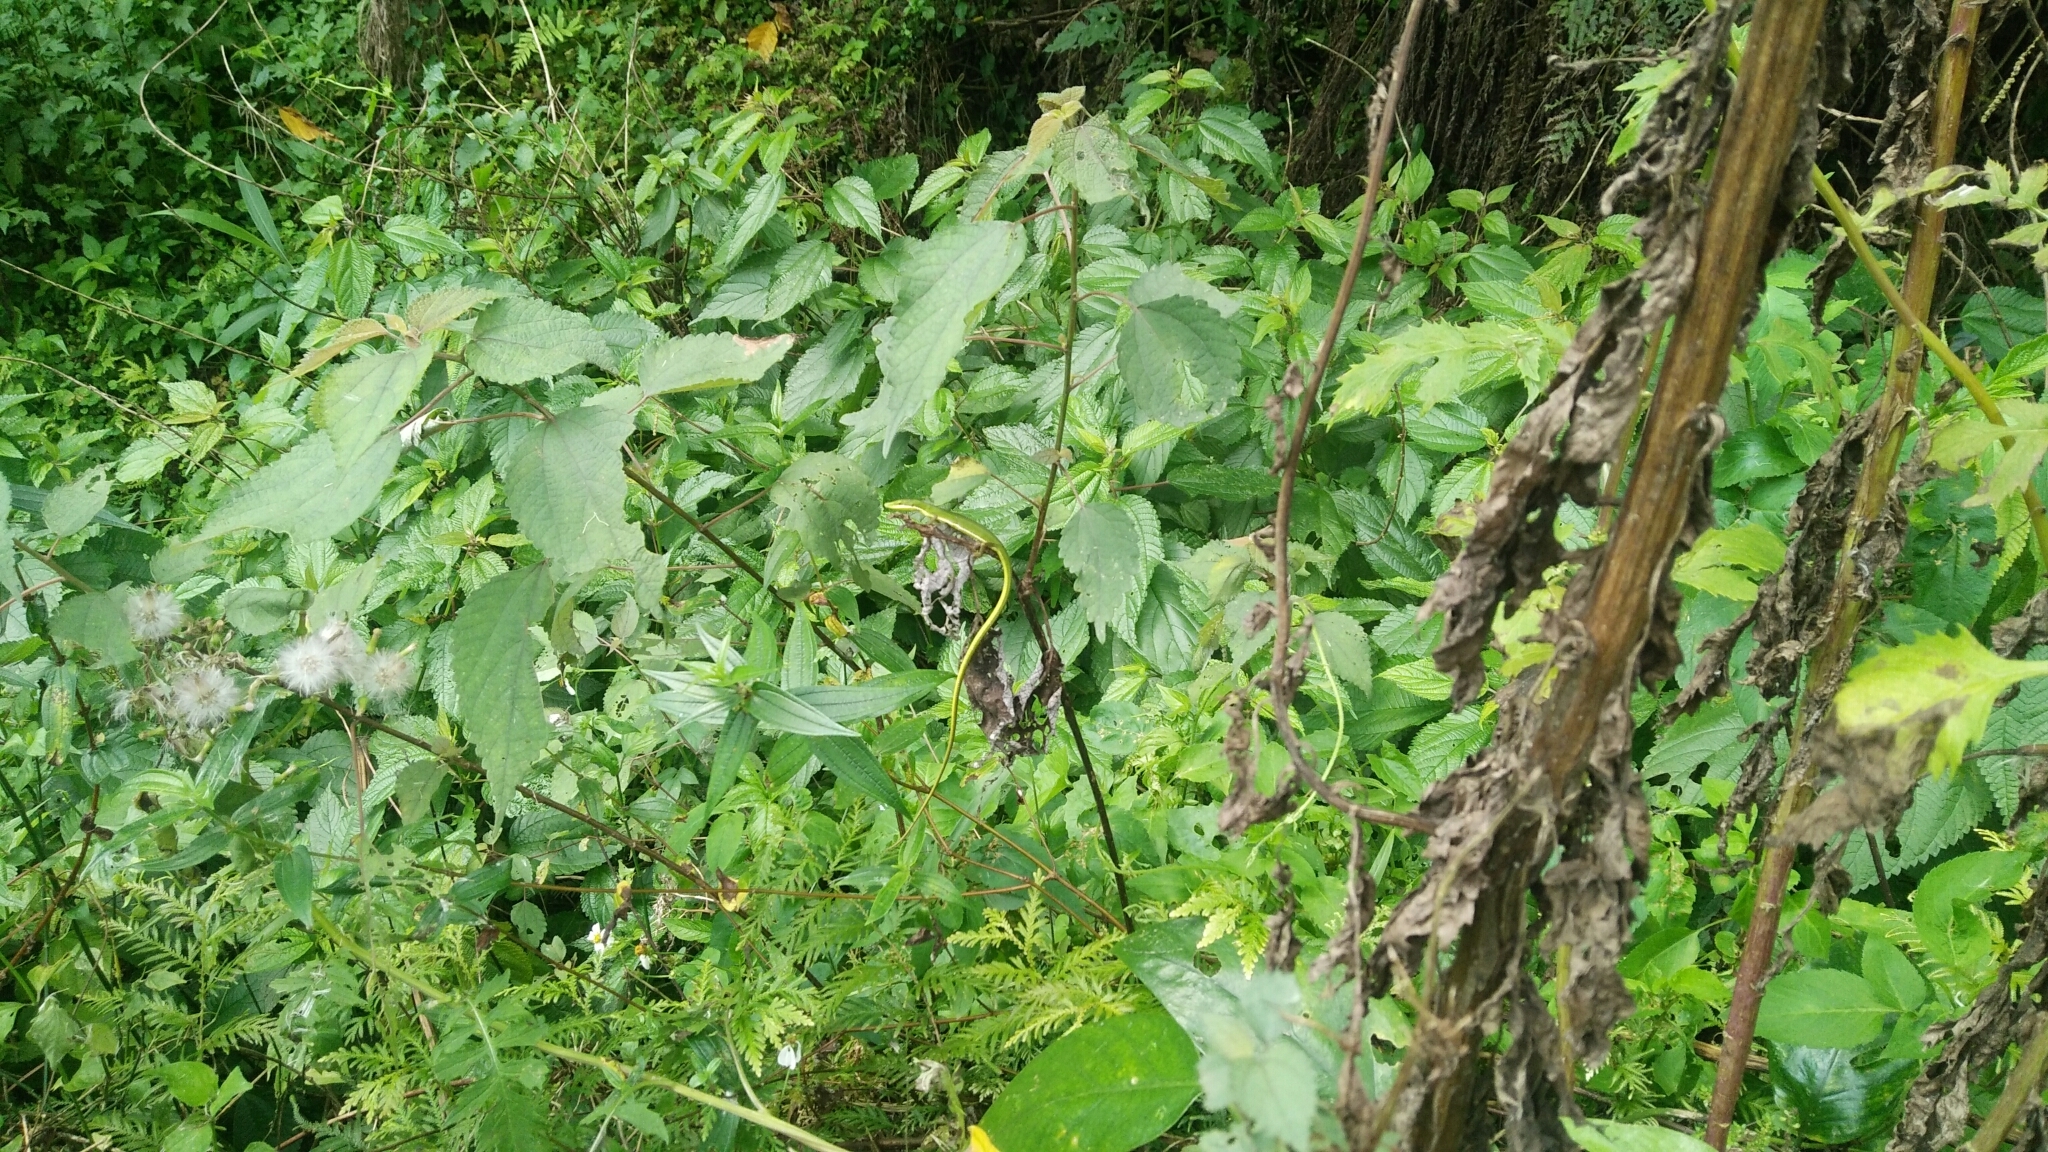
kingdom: Animalia
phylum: Chordata
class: Squamata
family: Lacertidae
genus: Takydromus
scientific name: Takydromus sauteri
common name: Koshun grass lizard
